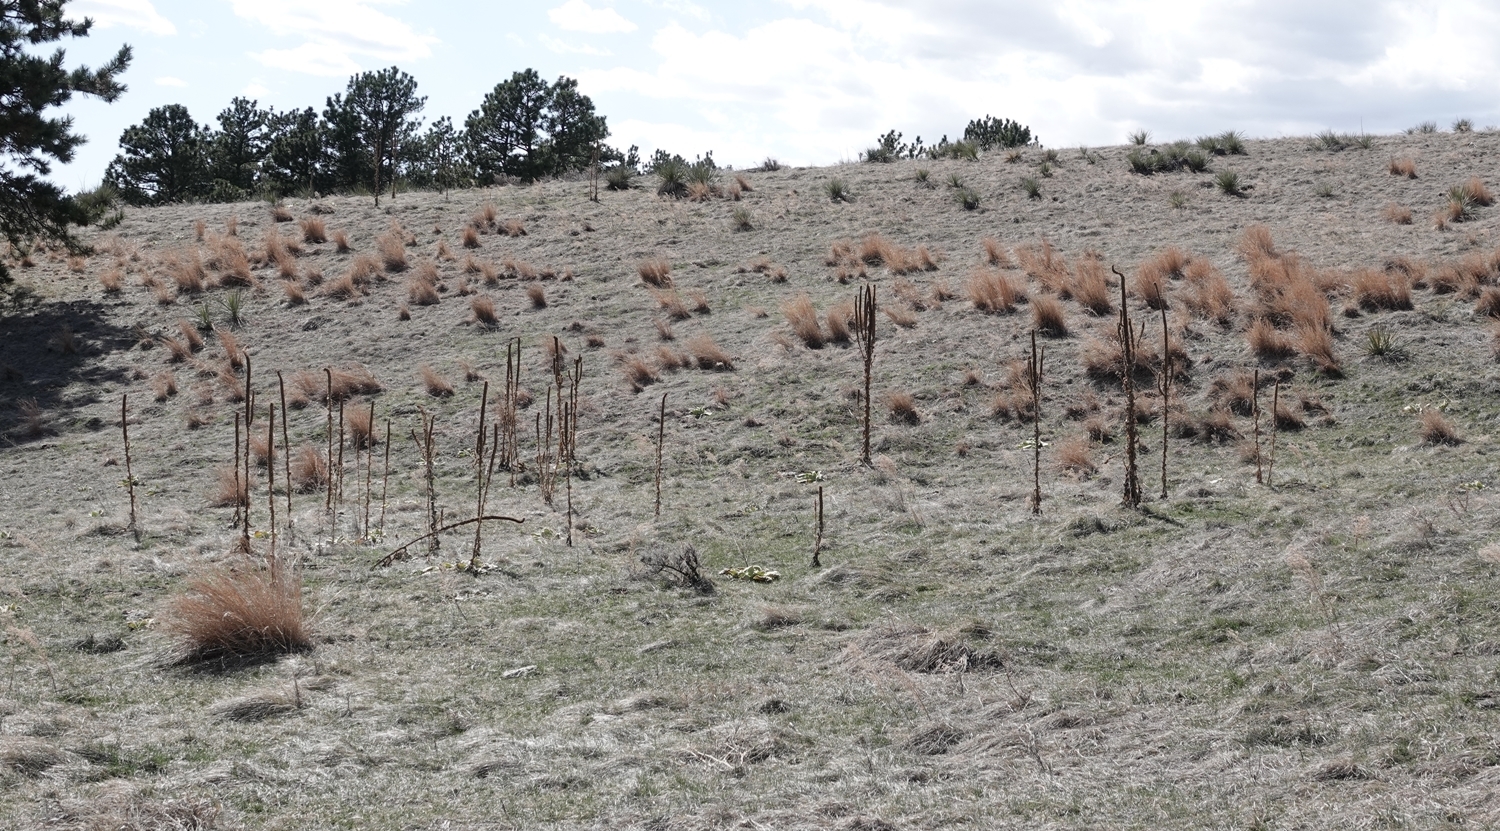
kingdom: Plantae
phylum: Tracheophyta
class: Magnoliopsida
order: Lamiales
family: Scrophulariaceae
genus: Verbascum
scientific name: Verbascum thapsus
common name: Common mullein
